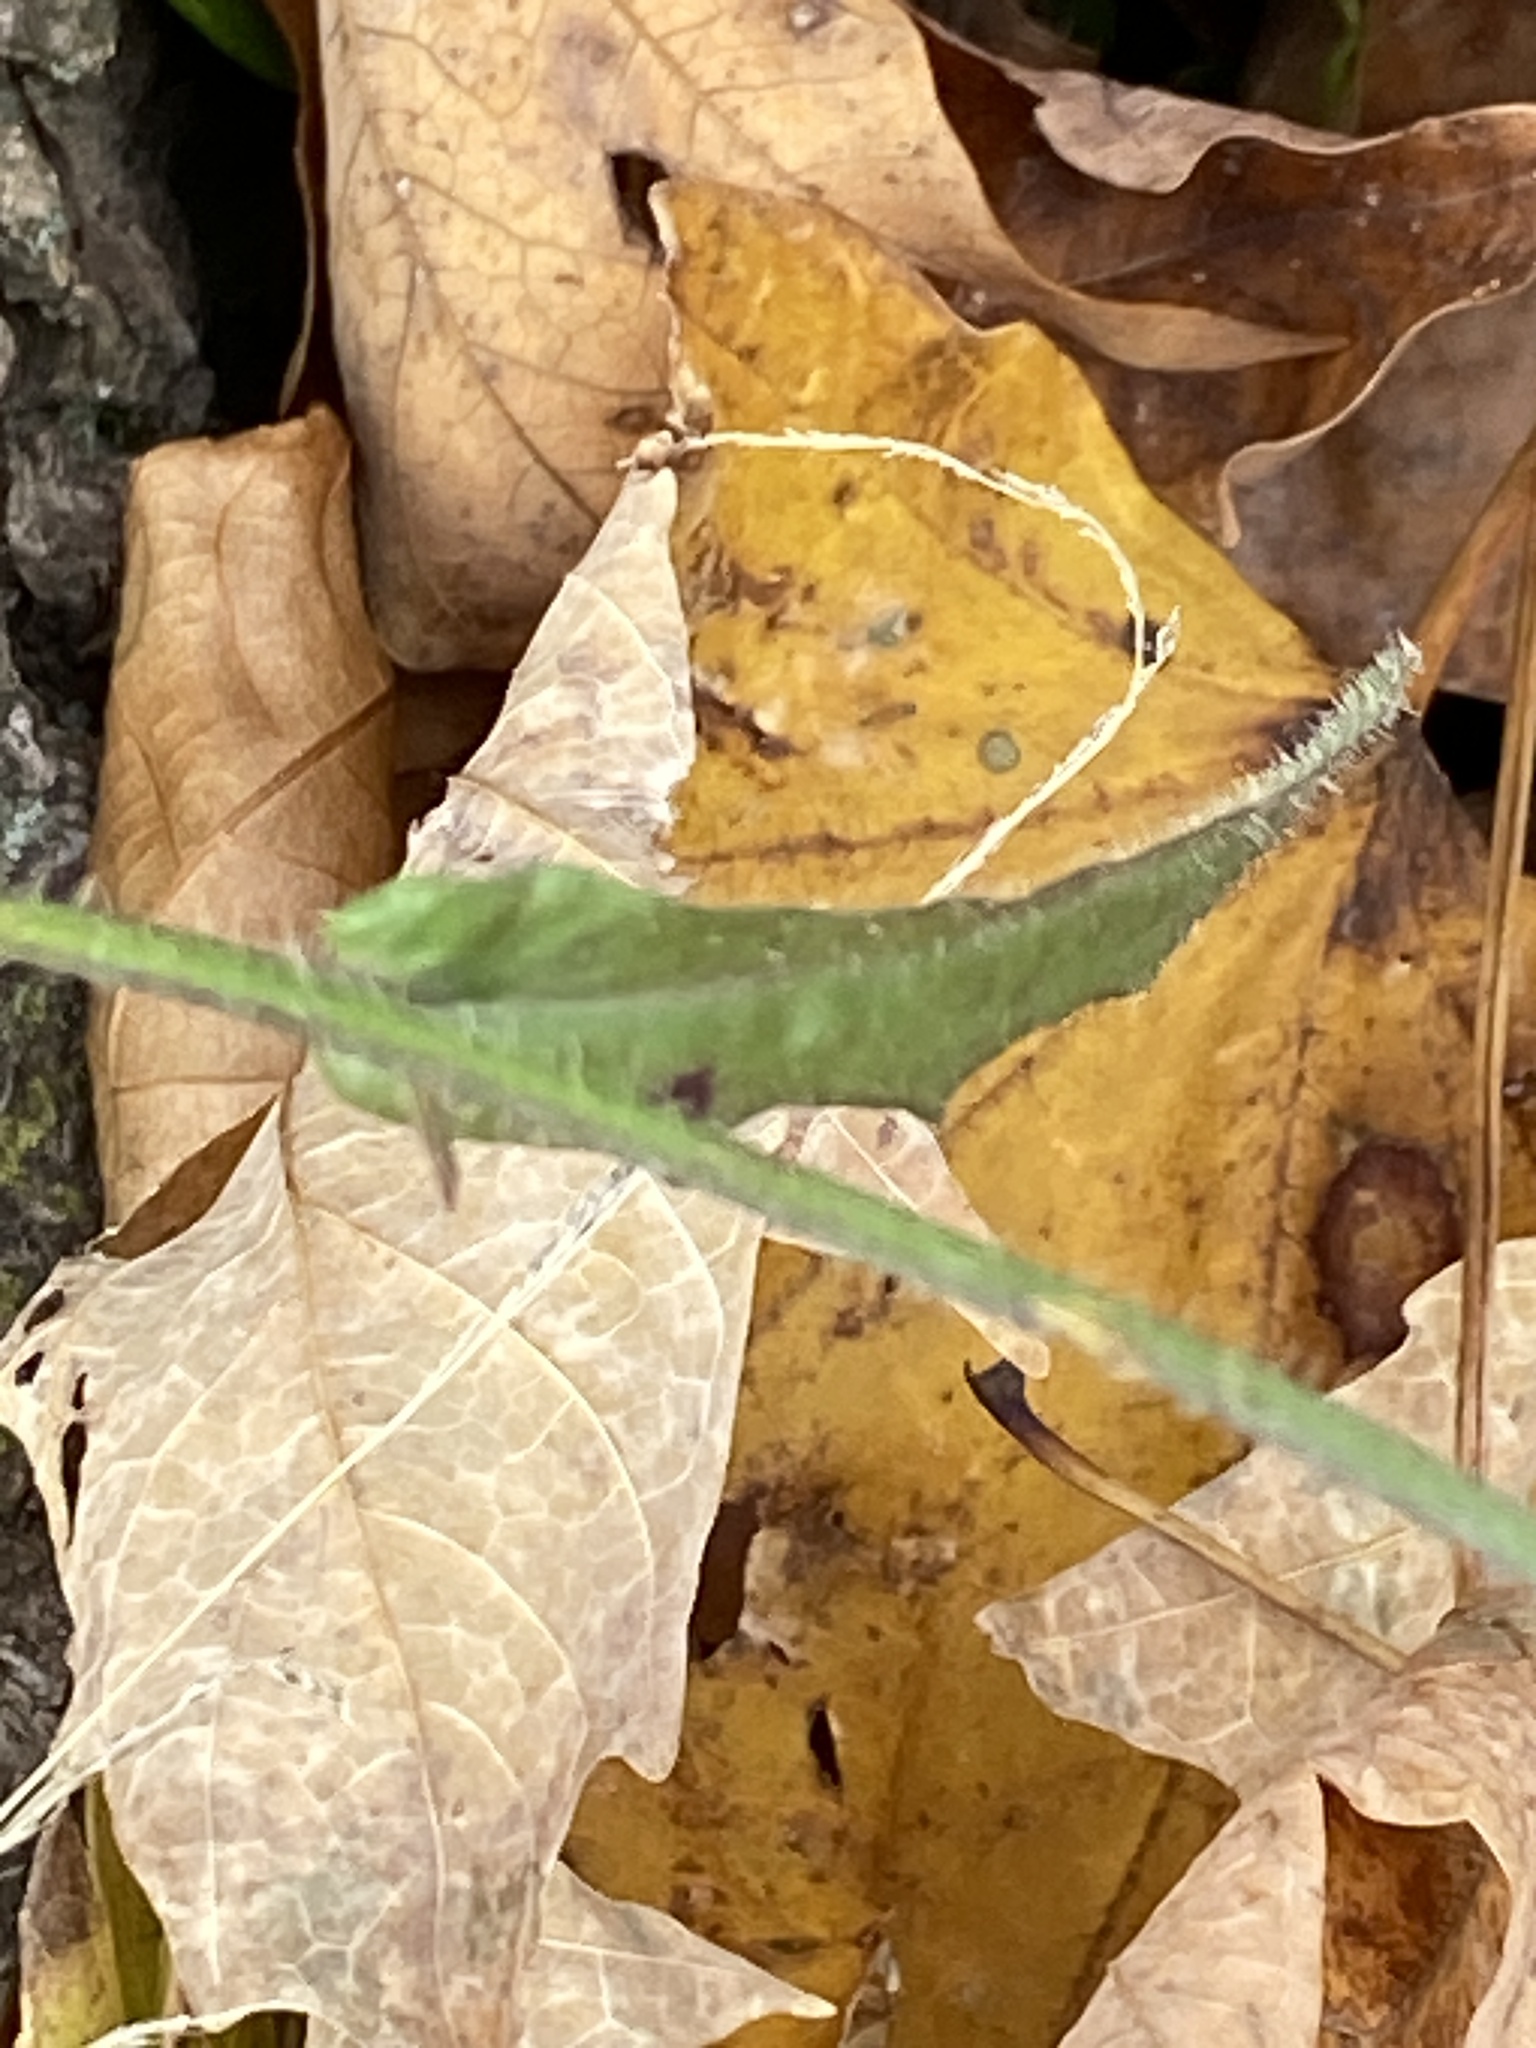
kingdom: Plantae
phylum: Tracheophyta
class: Magnoliopsida
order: Asterales
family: Asteraceae
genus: Picris
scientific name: Picris hieracioides
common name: Hawkweed oxtongue
